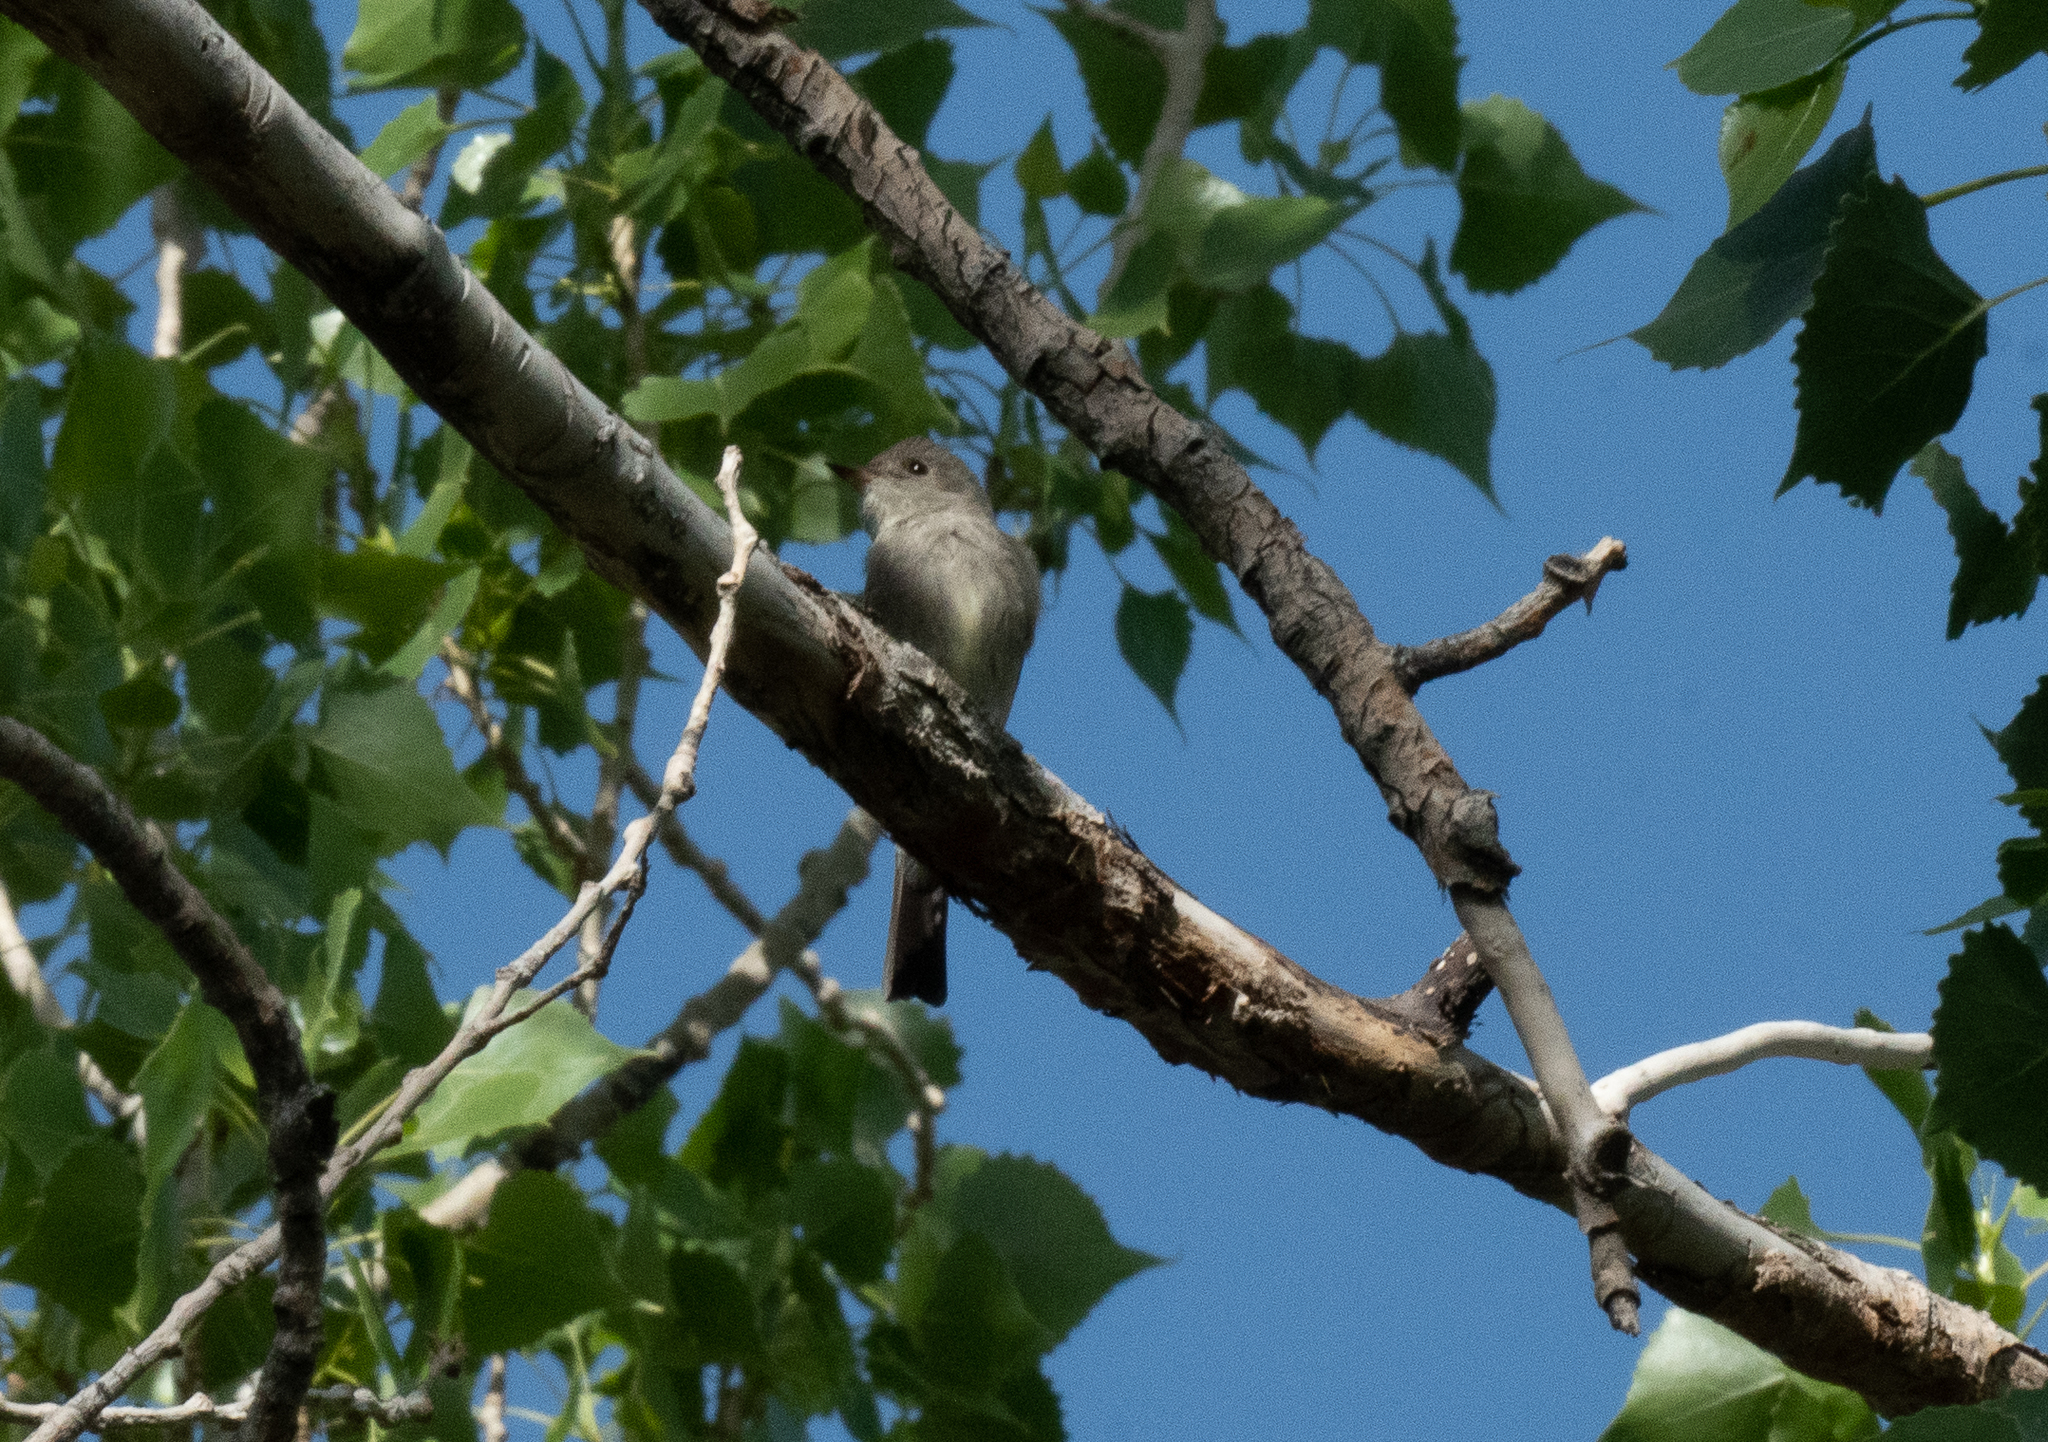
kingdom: Animalia
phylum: Chordata
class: Aves
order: Passeriformes
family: Tyrannidae
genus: Contopus
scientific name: Contopus sordidulus
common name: Western wood-pewee
